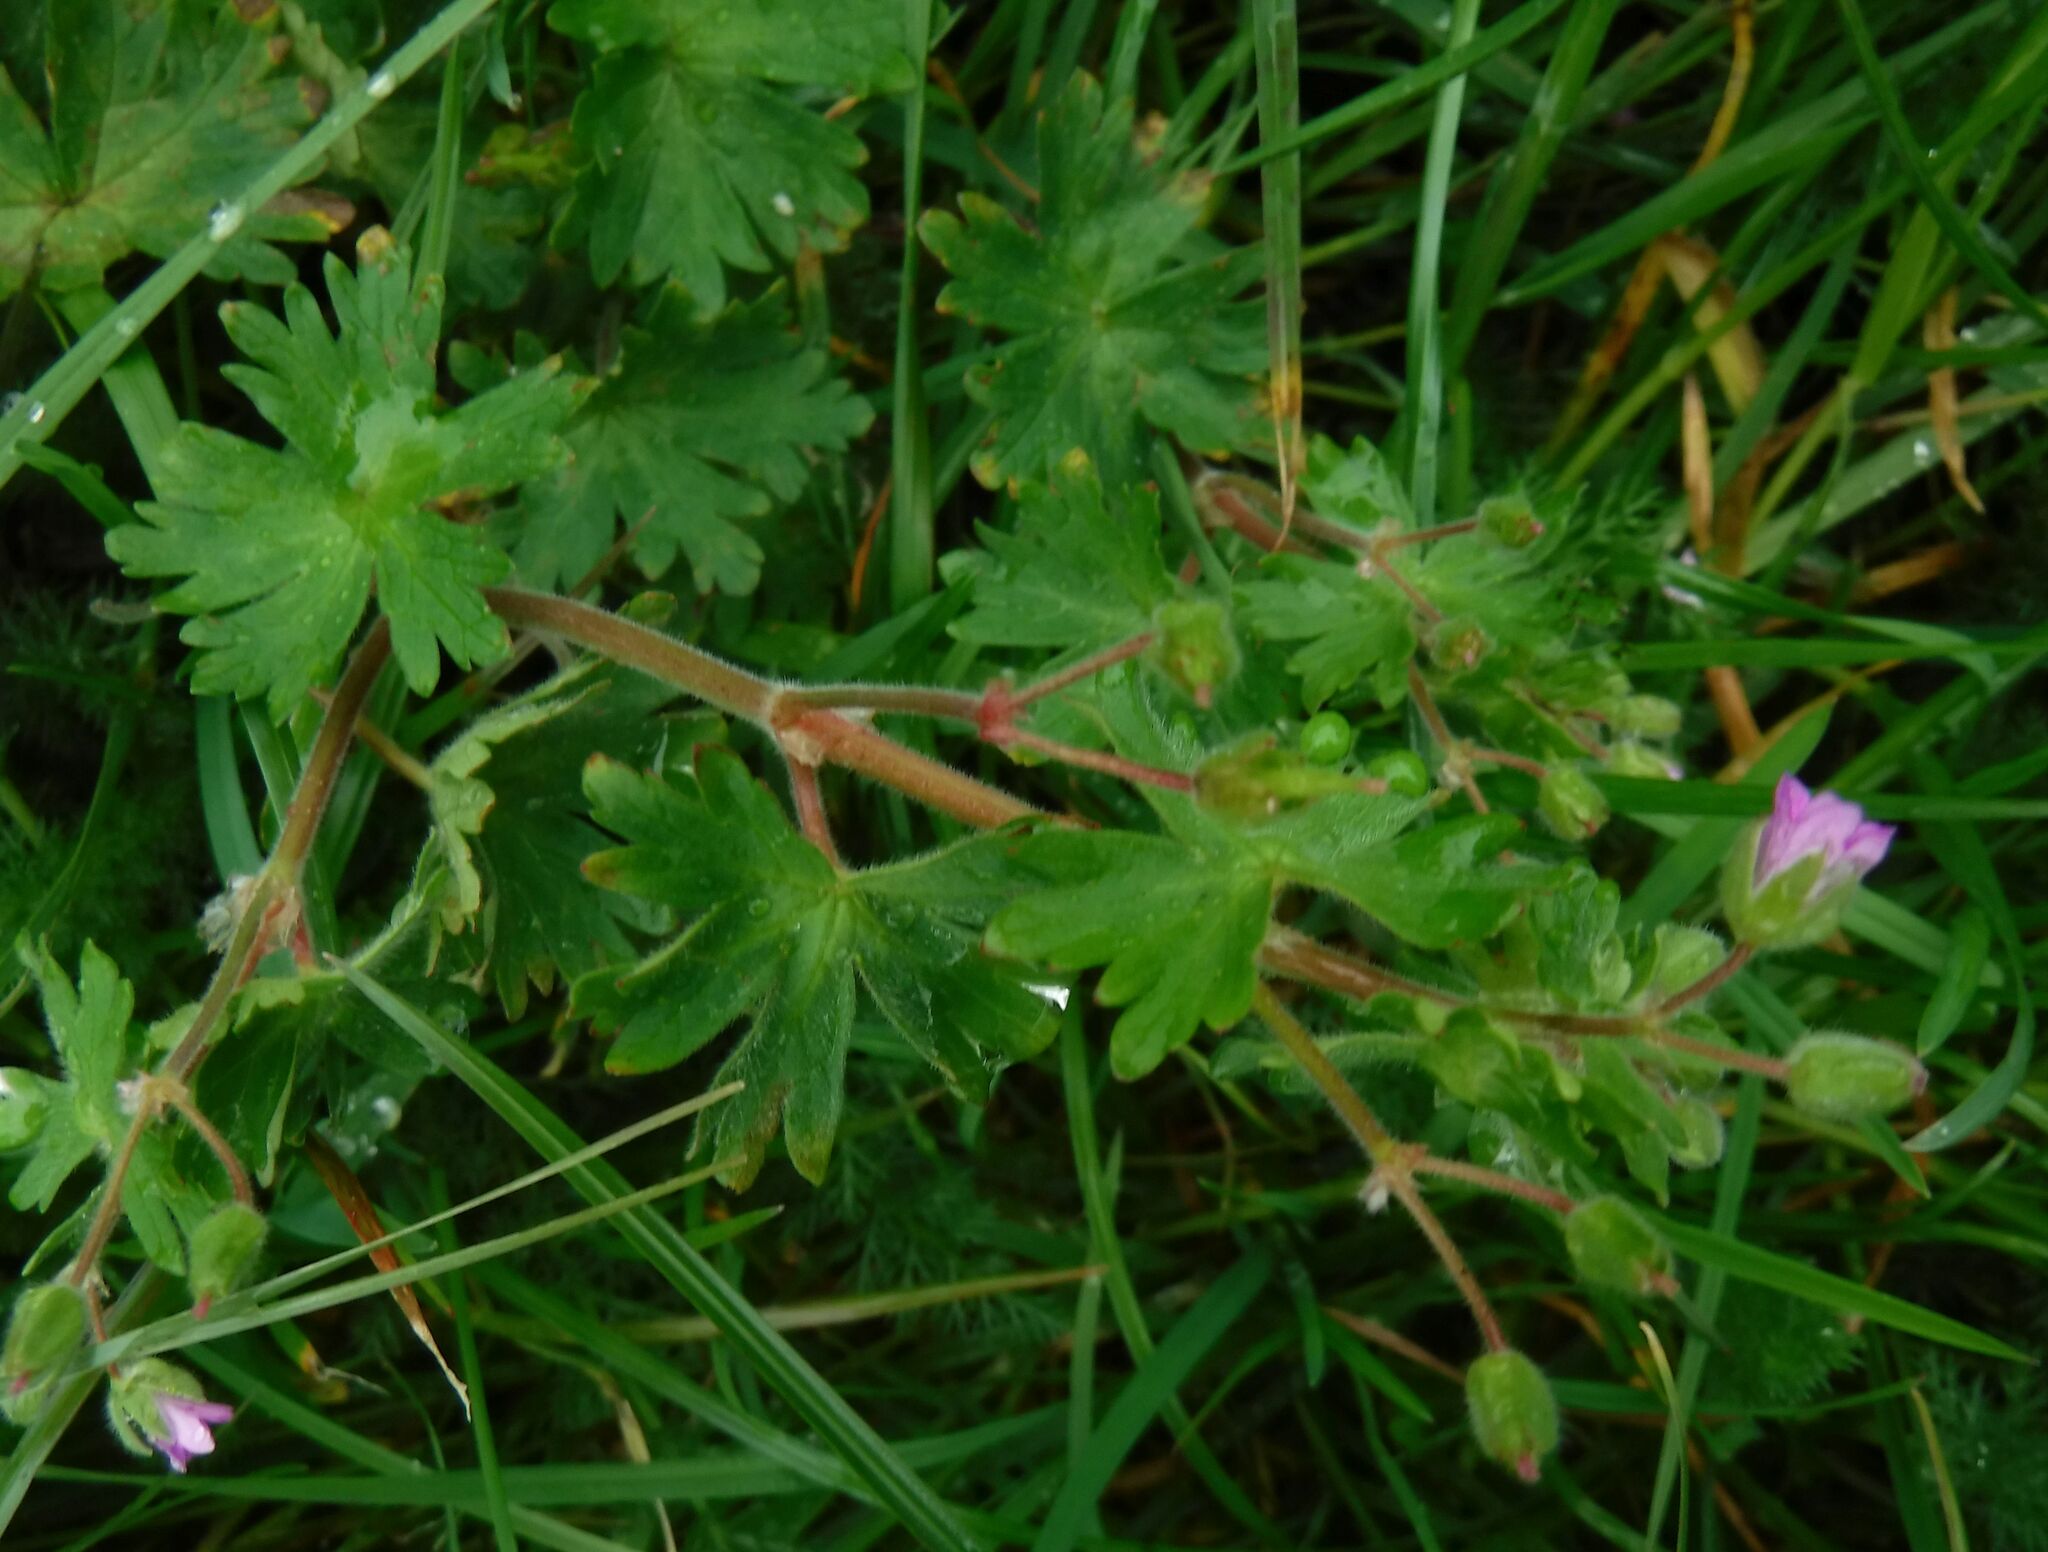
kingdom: Plantae
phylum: Tracheophyta
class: Magnoliopsida
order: Geraniales
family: Geraniaceae
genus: Geranium
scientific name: Geranium molle
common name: Dove's-foot crane's-bill
